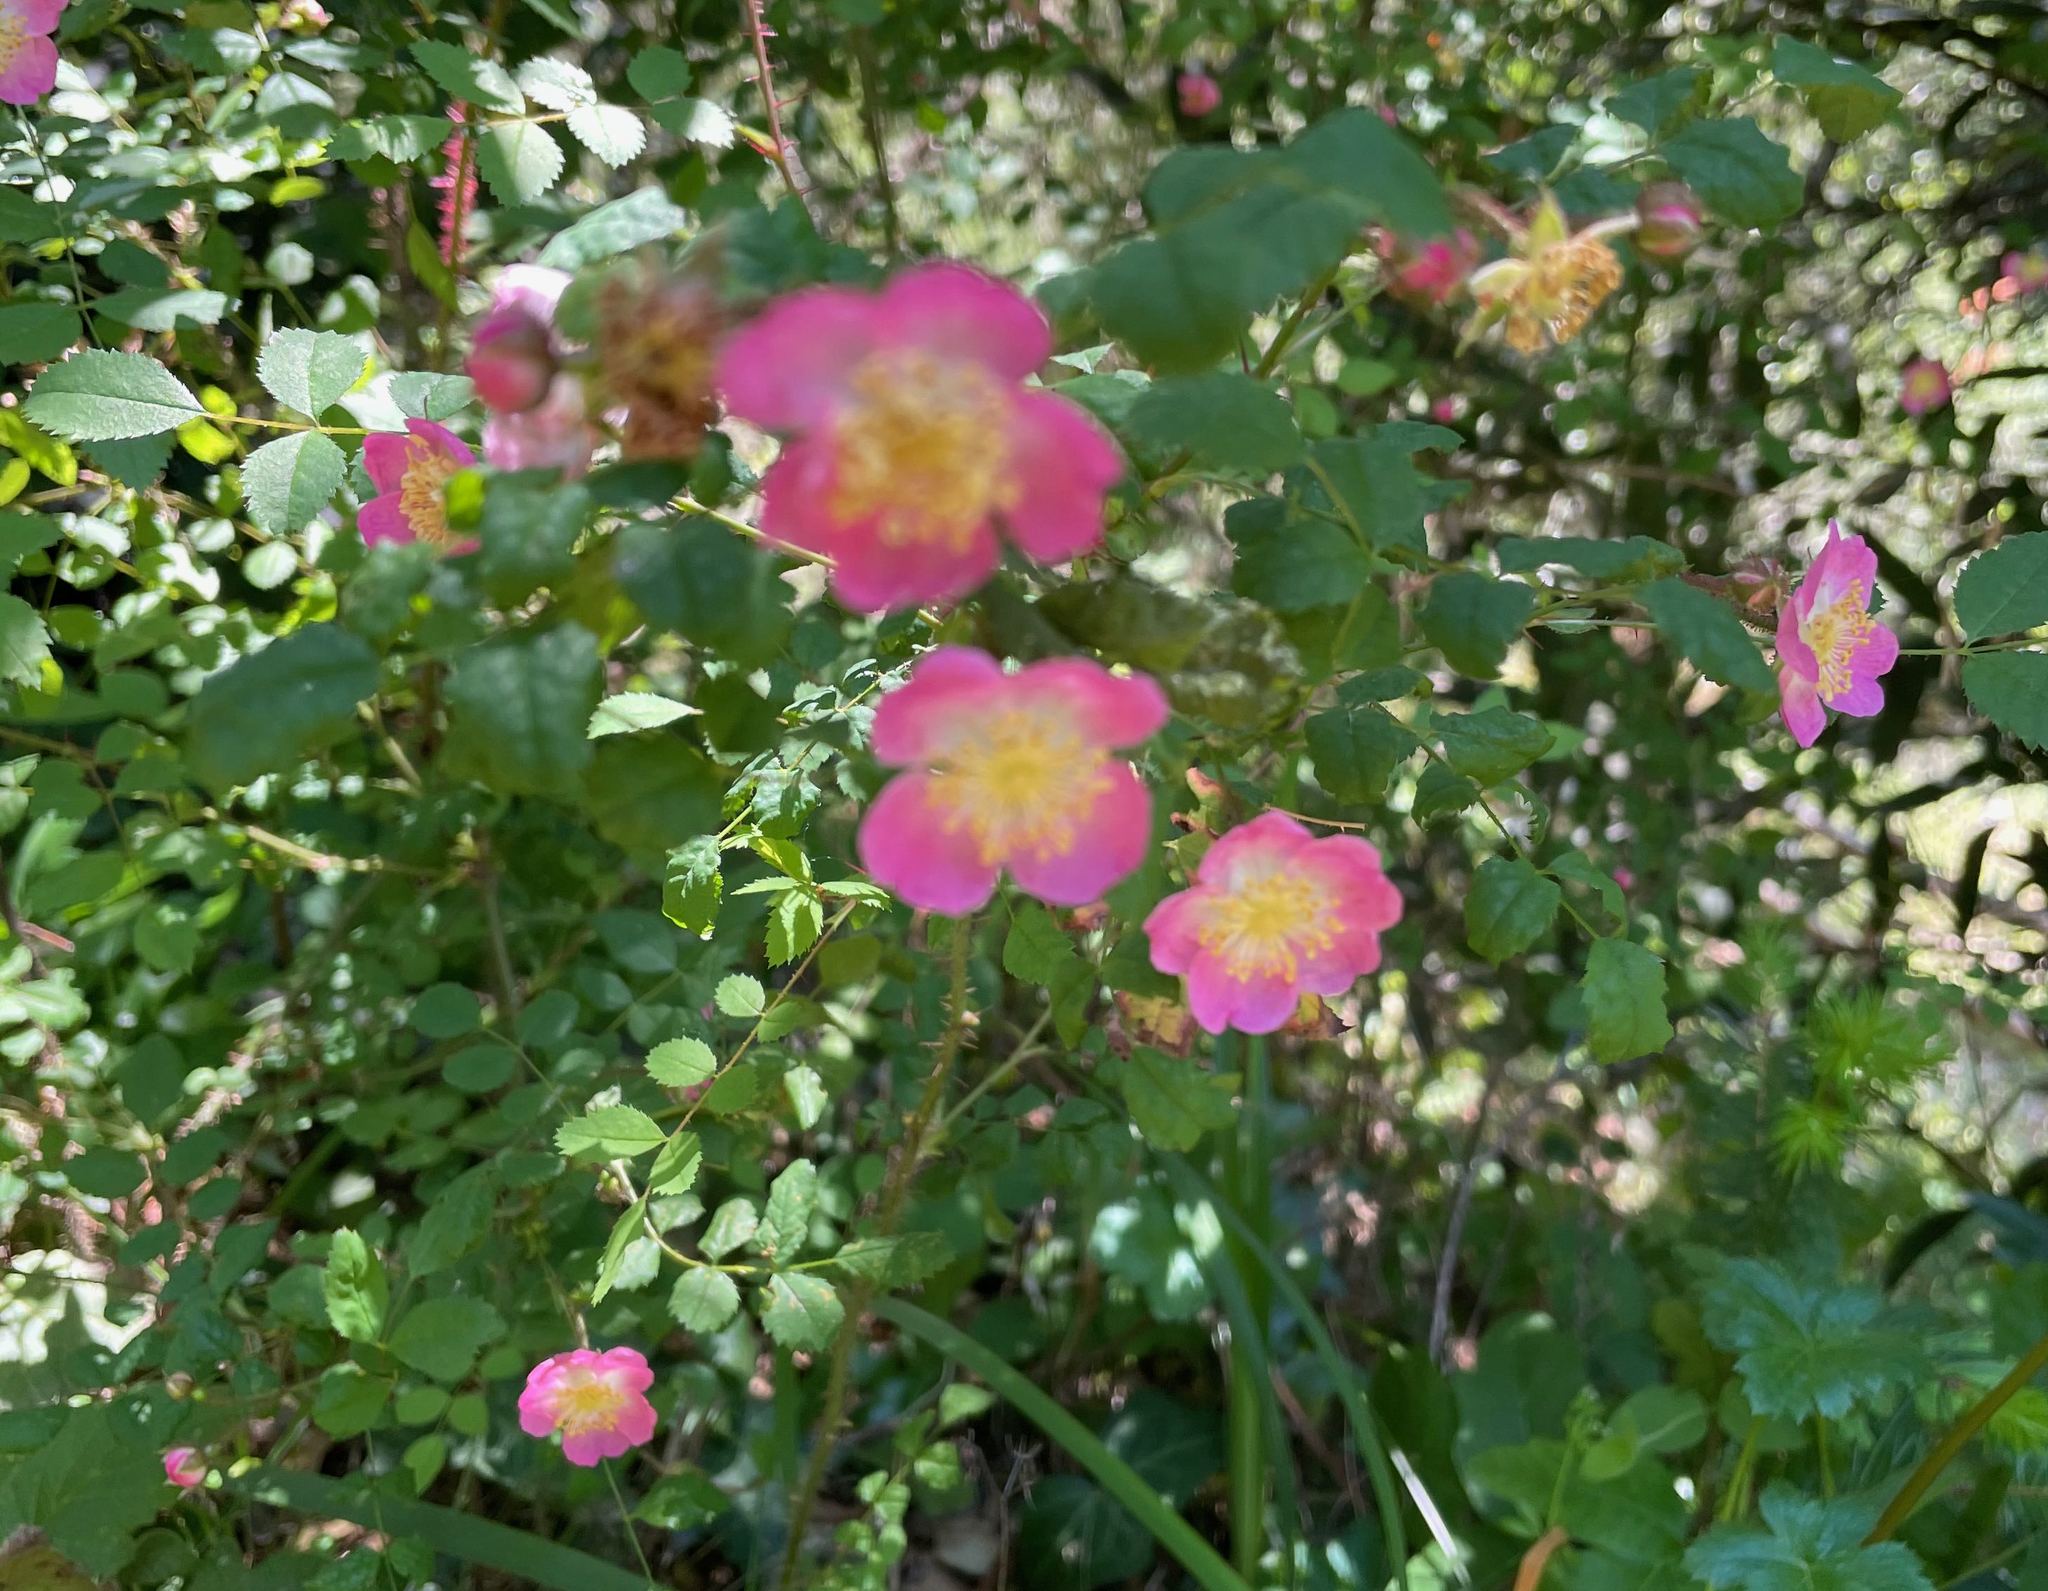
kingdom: Plantae
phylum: Tracheophyta
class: Magnoliopsida
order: Rosales
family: Rosaceae
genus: Rosa
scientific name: Rosa gymnocarpa
